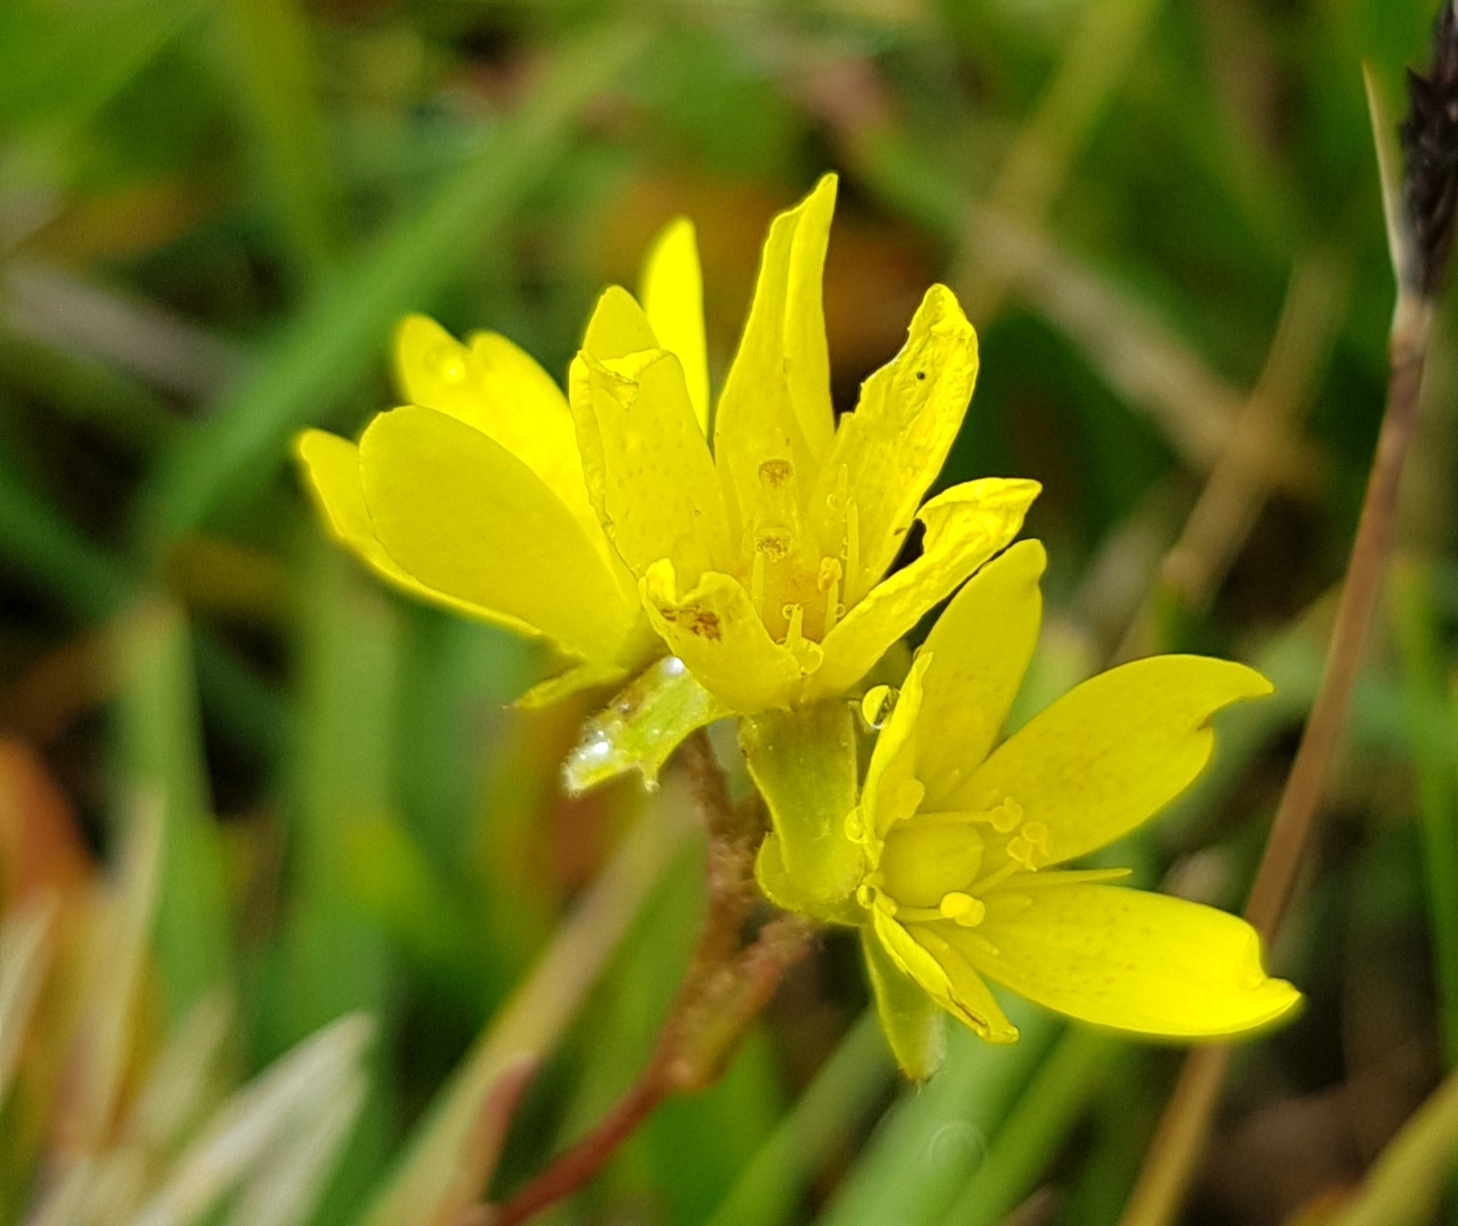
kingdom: Plantae
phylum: Tracheophyta
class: Magnoliopsida
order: Saxifragales
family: Saxifragaceae
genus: Saxifraga
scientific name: Saxifraga hirculus
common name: Yellow marsh saxifrage
